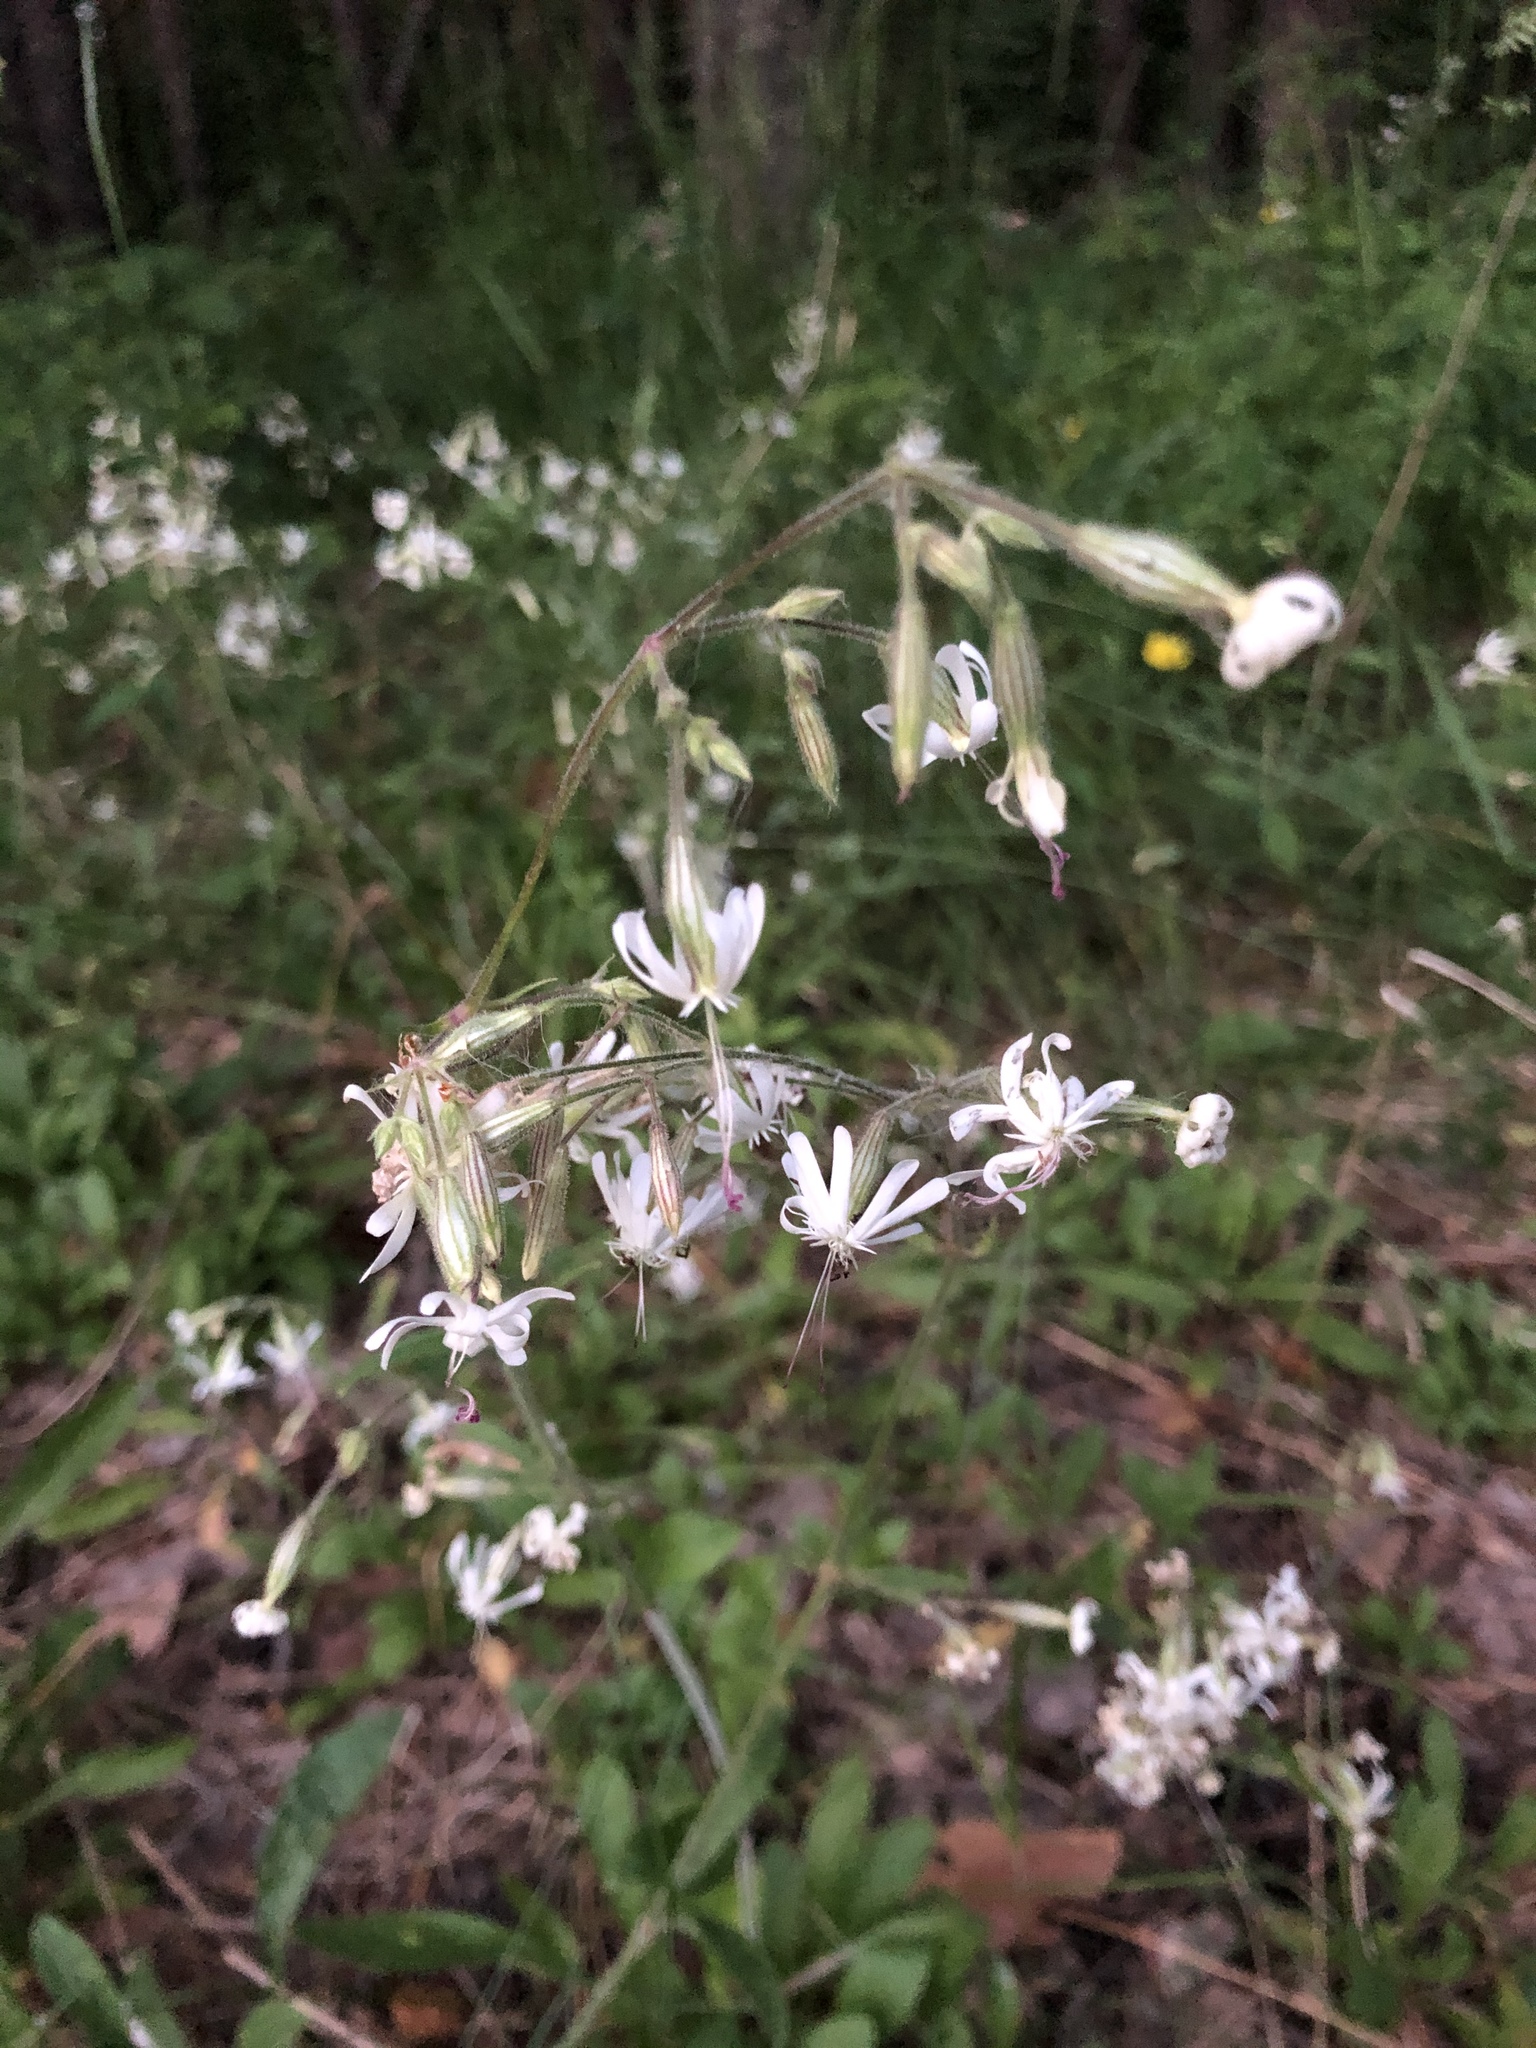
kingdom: Plantae
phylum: Tracheophyta
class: Magnoliopsida
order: Caryophyllales
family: Caryophyllaceae
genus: Silene
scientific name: Silene nutans
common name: Nottingham catchfly
